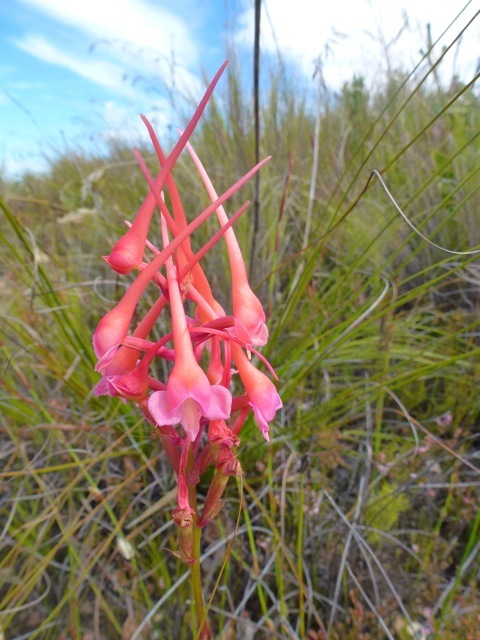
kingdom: Plantae
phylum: Tracheophyta
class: Liliopsida
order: Asparagales
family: Orchidaceae
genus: Disa
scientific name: Disa porrecta
